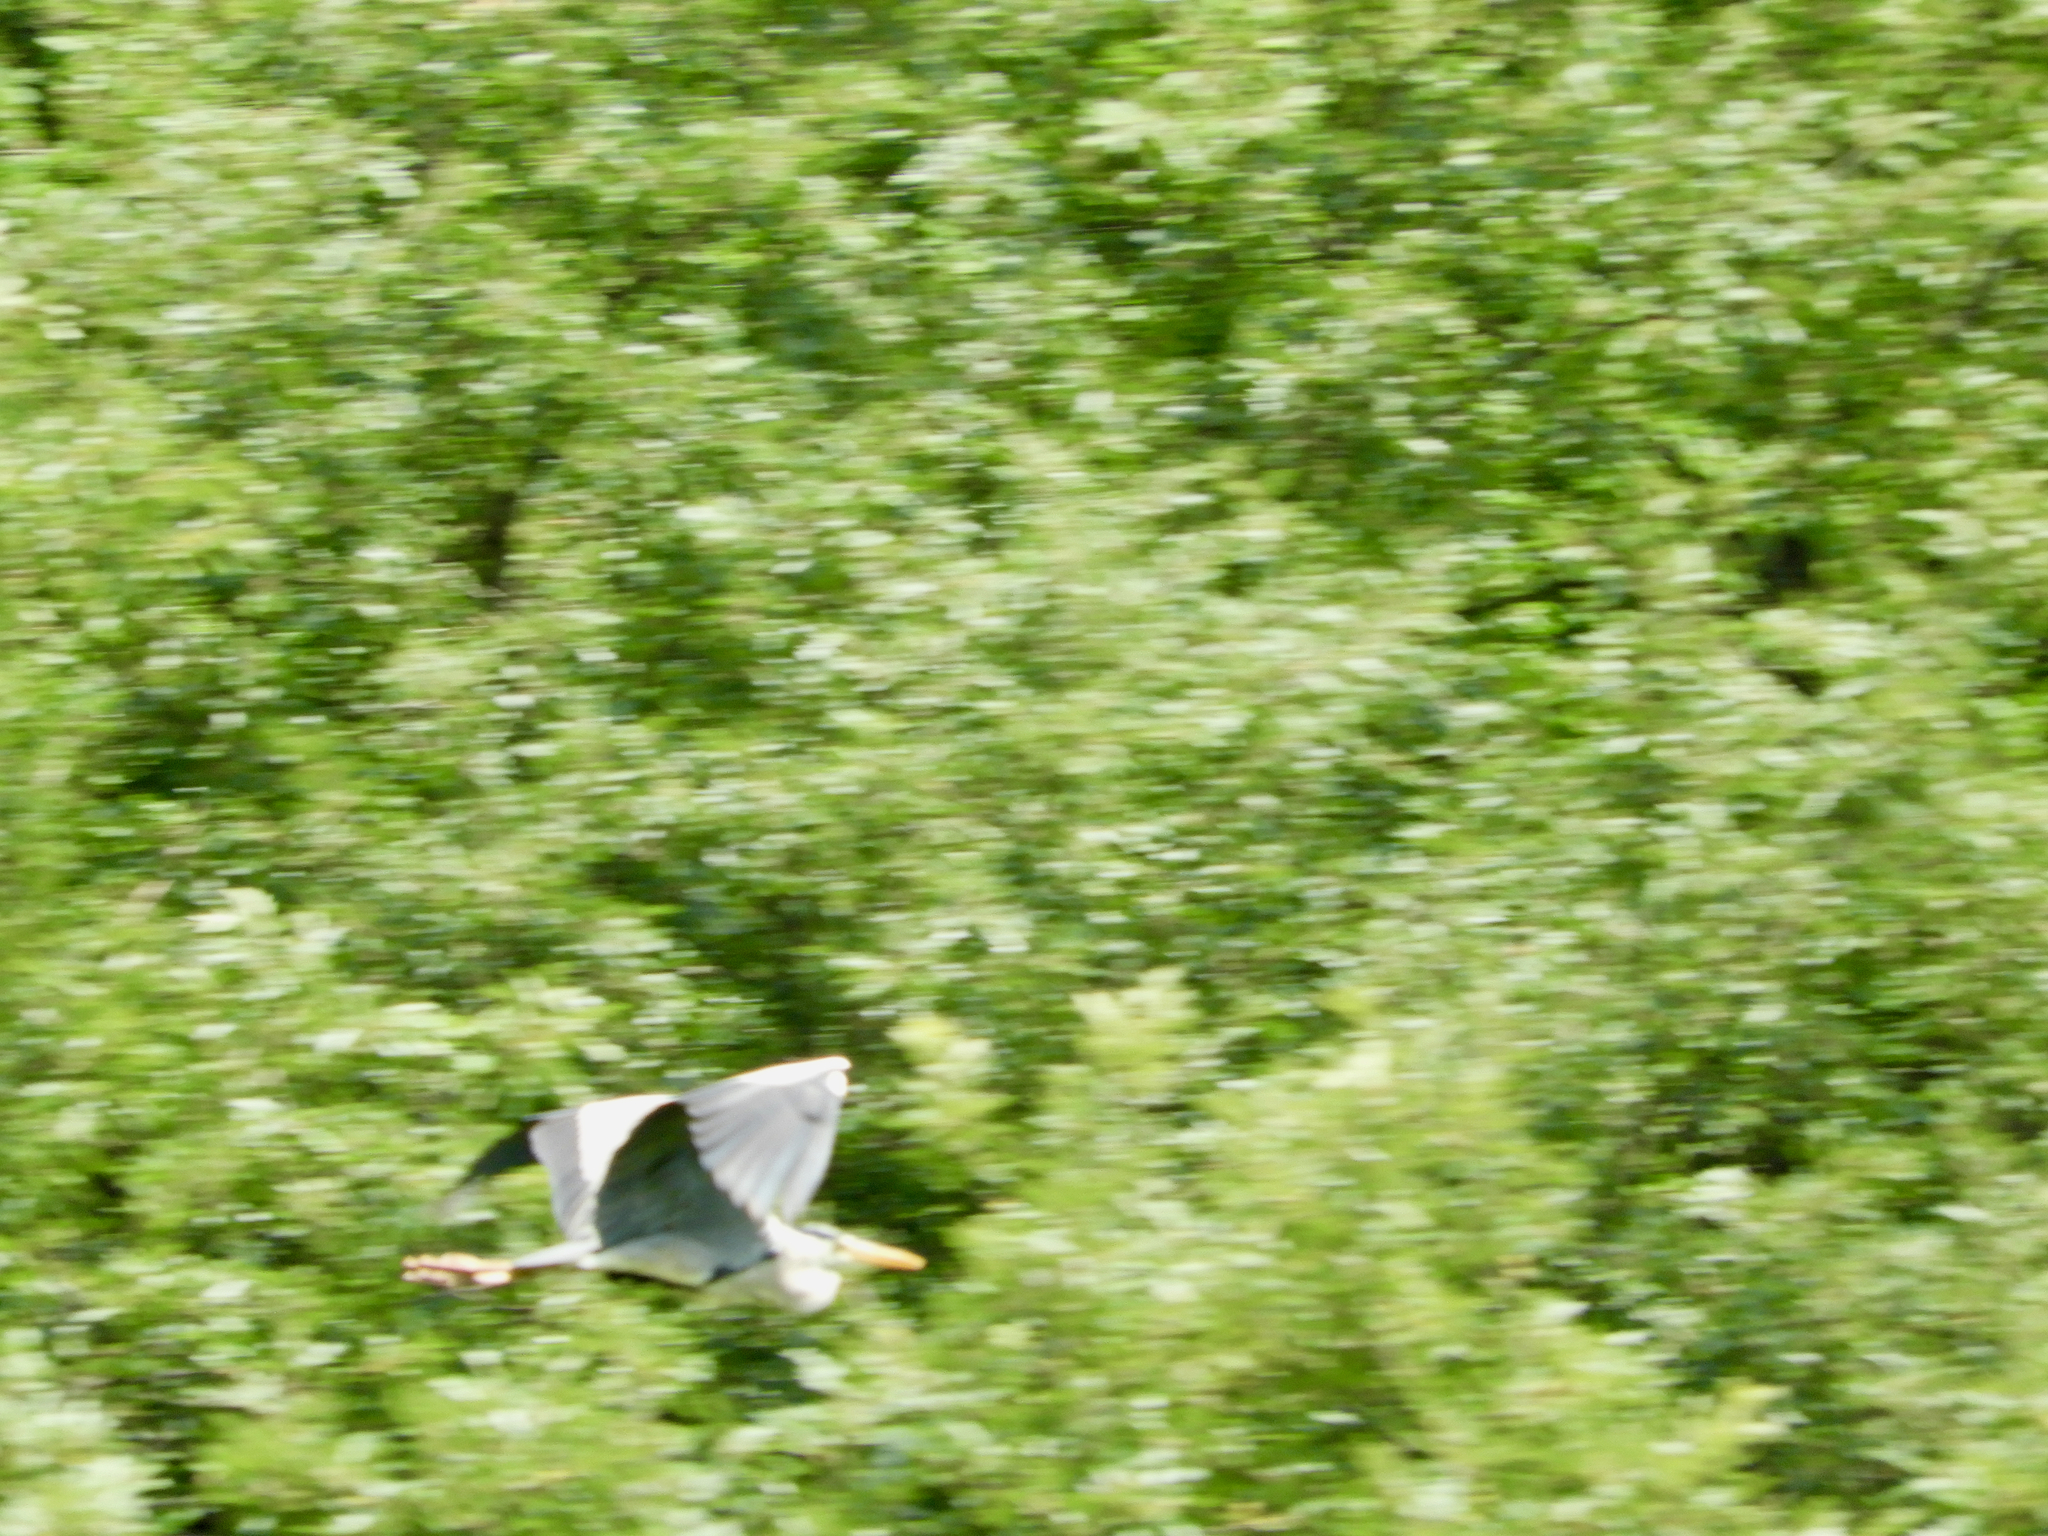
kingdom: Animalia
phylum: Chordata
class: Aves
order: Pelecaniformes
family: Ardeidae
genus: Ardea
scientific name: Ardea cinerea
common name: Grey heron
